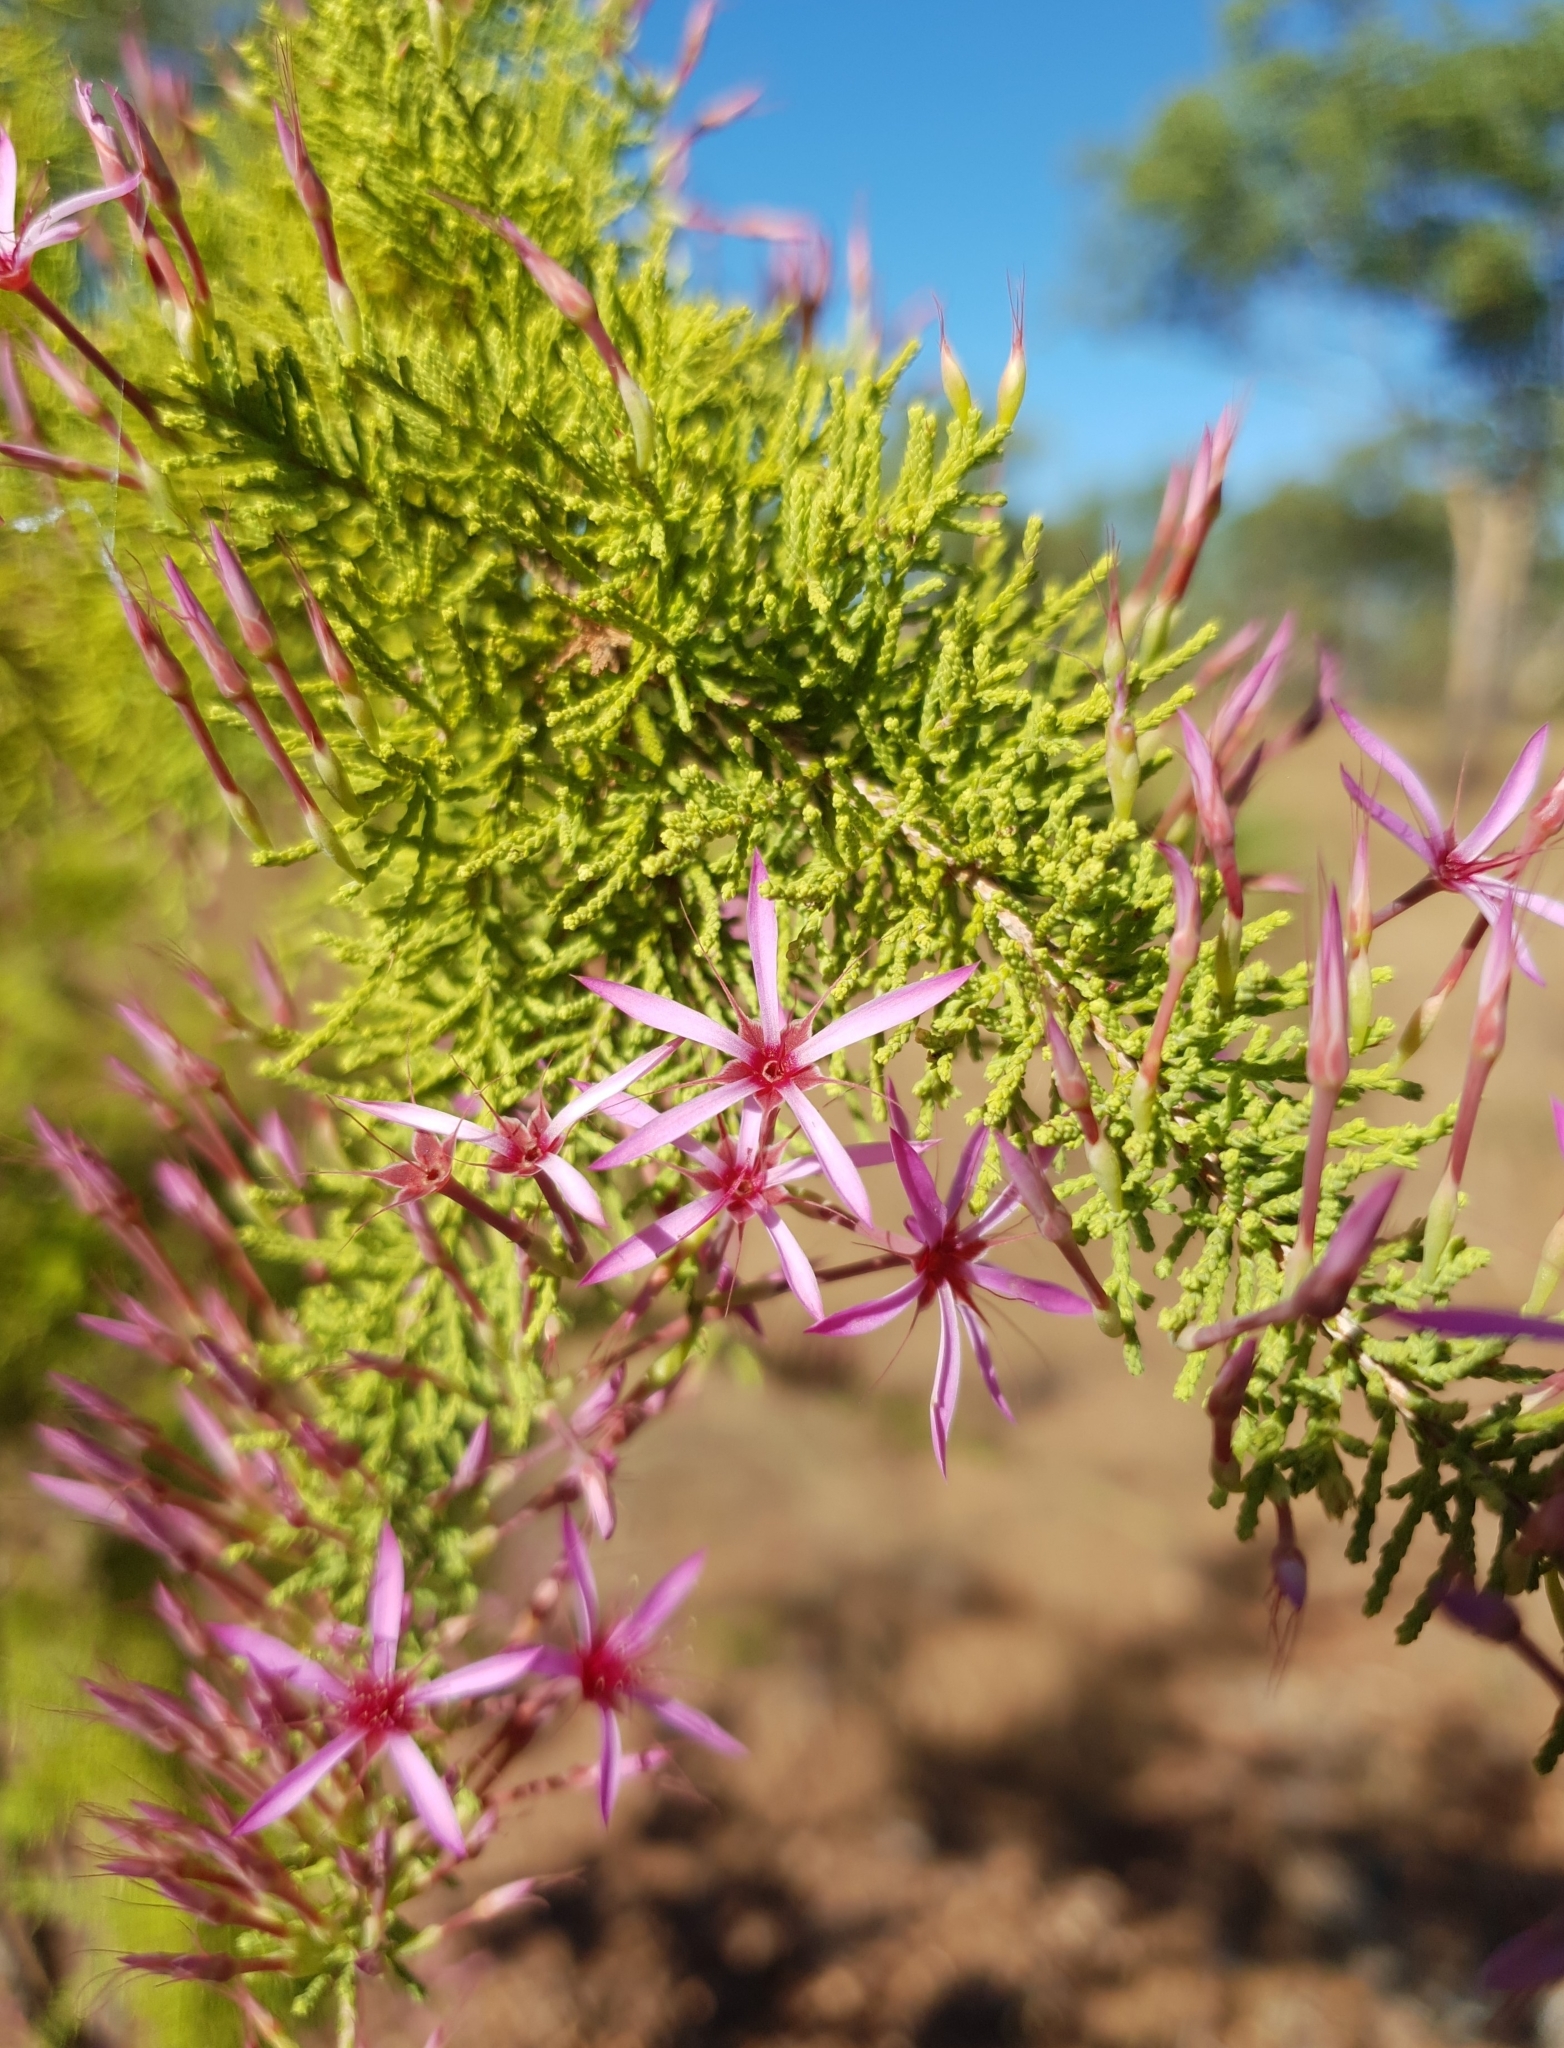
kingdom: Plantae
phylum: Tracheophyta
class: Magnoliopsida
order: Myrtales
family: Myrtaceae
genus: Calytrix
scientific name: Calytrix exstipulata
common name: Kimberley heather
